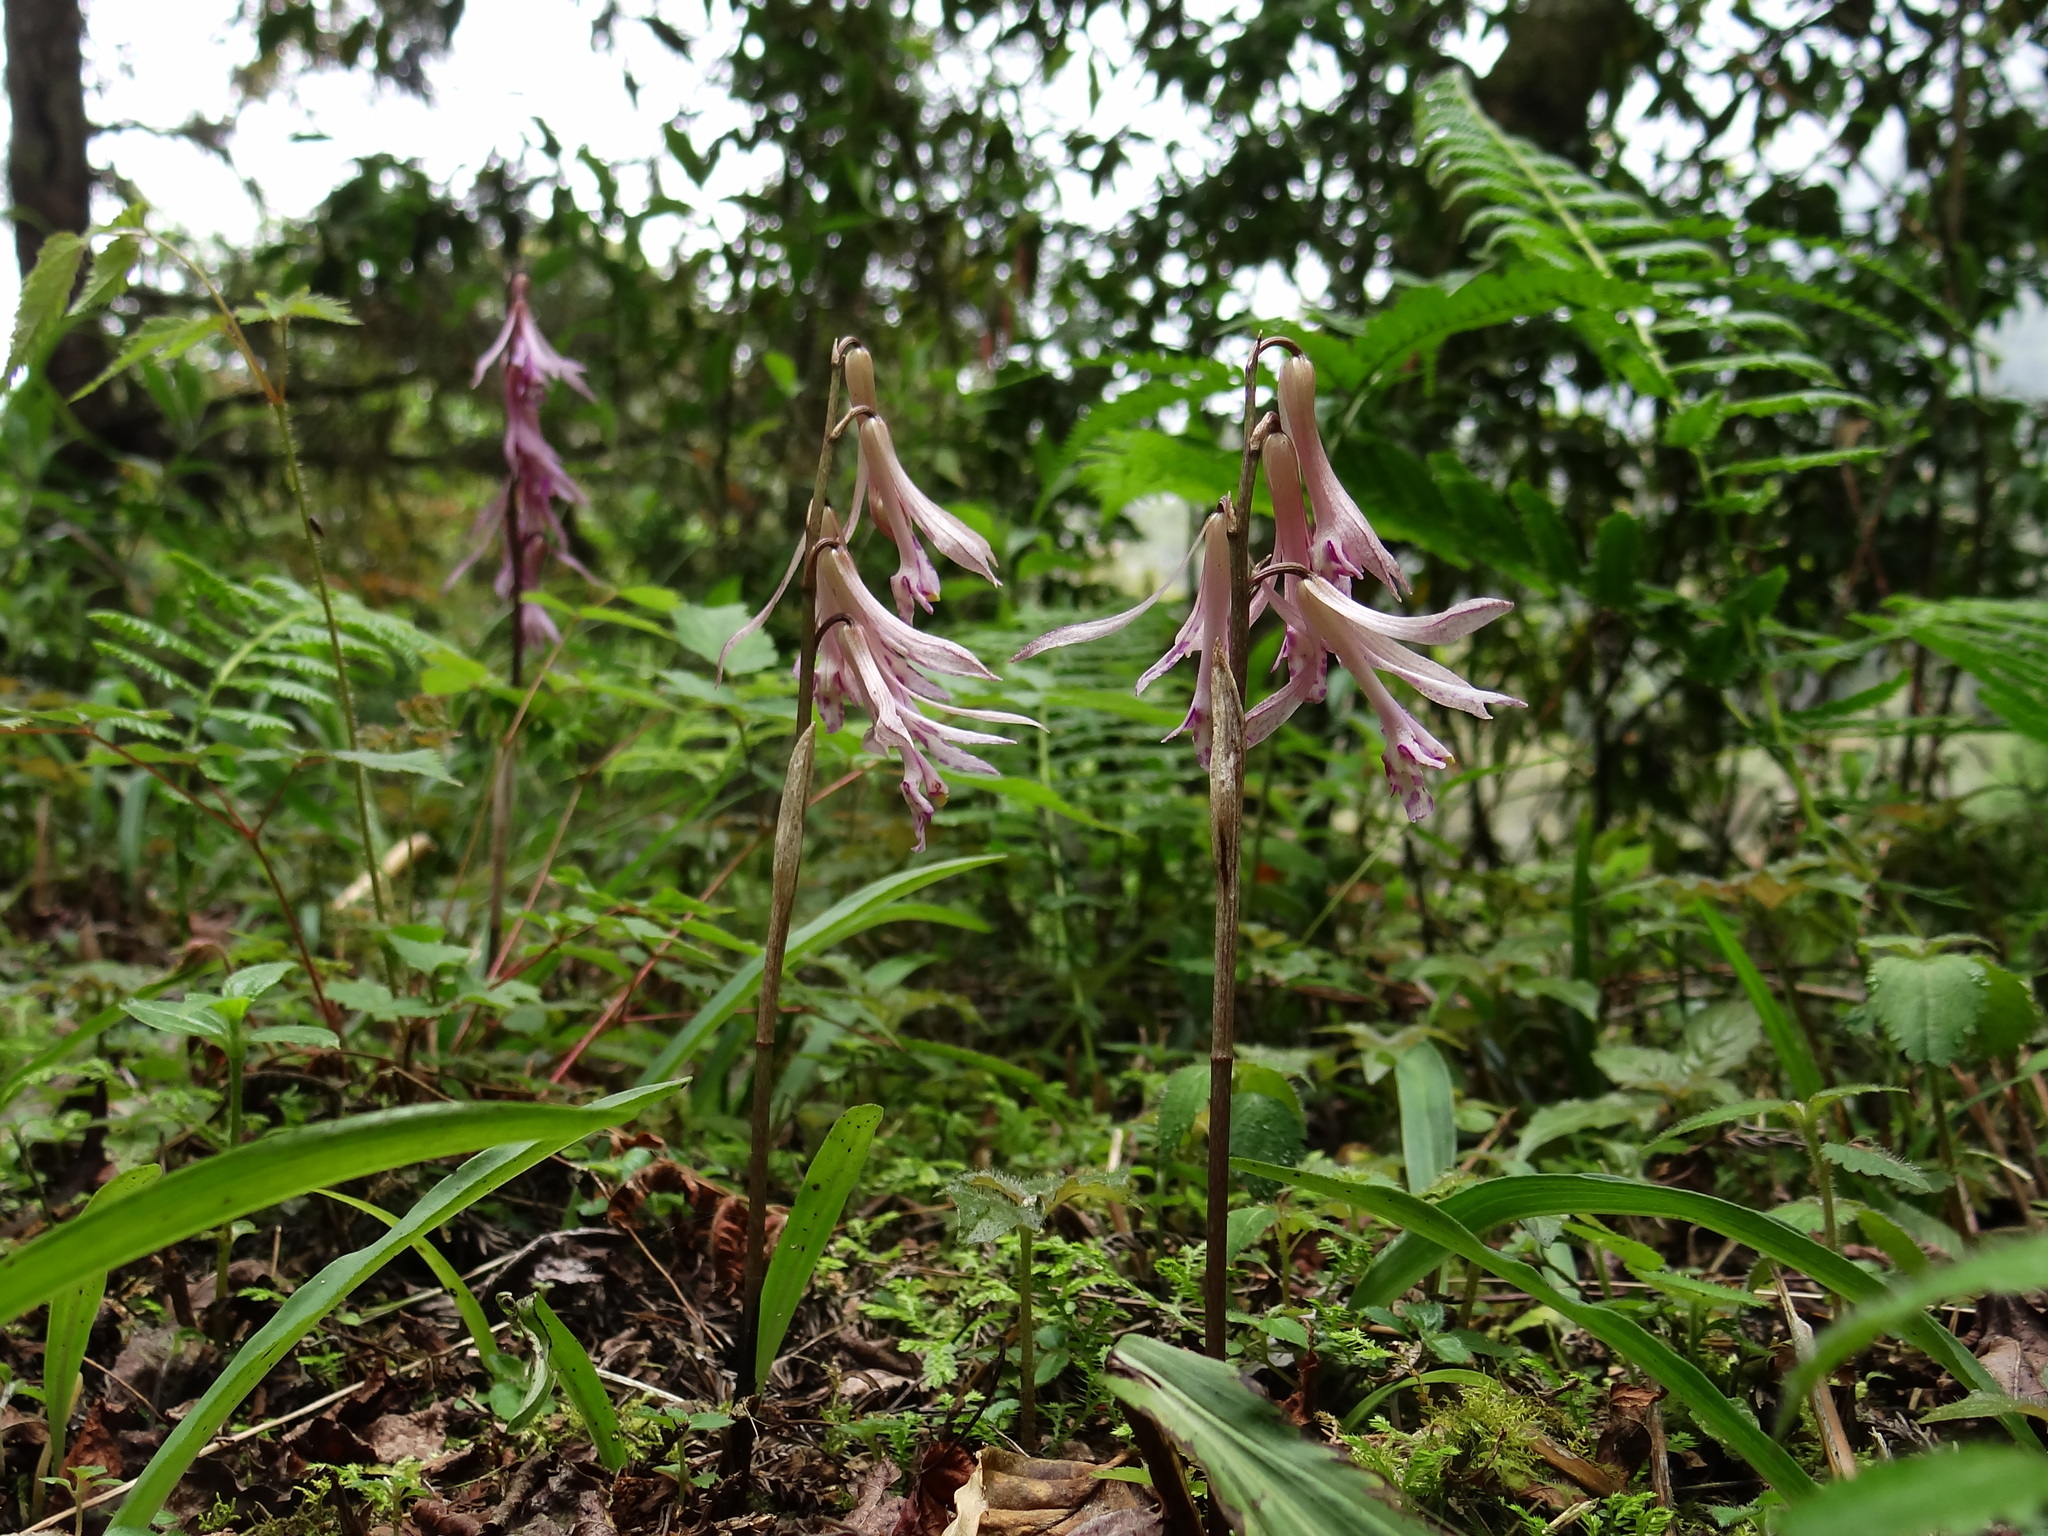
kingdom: Plantae
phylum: Tracheophyta
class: Liliopsida
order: Asparagales
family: Orchidaceae
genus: Cremastra
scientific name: Cremastra appendiculata
